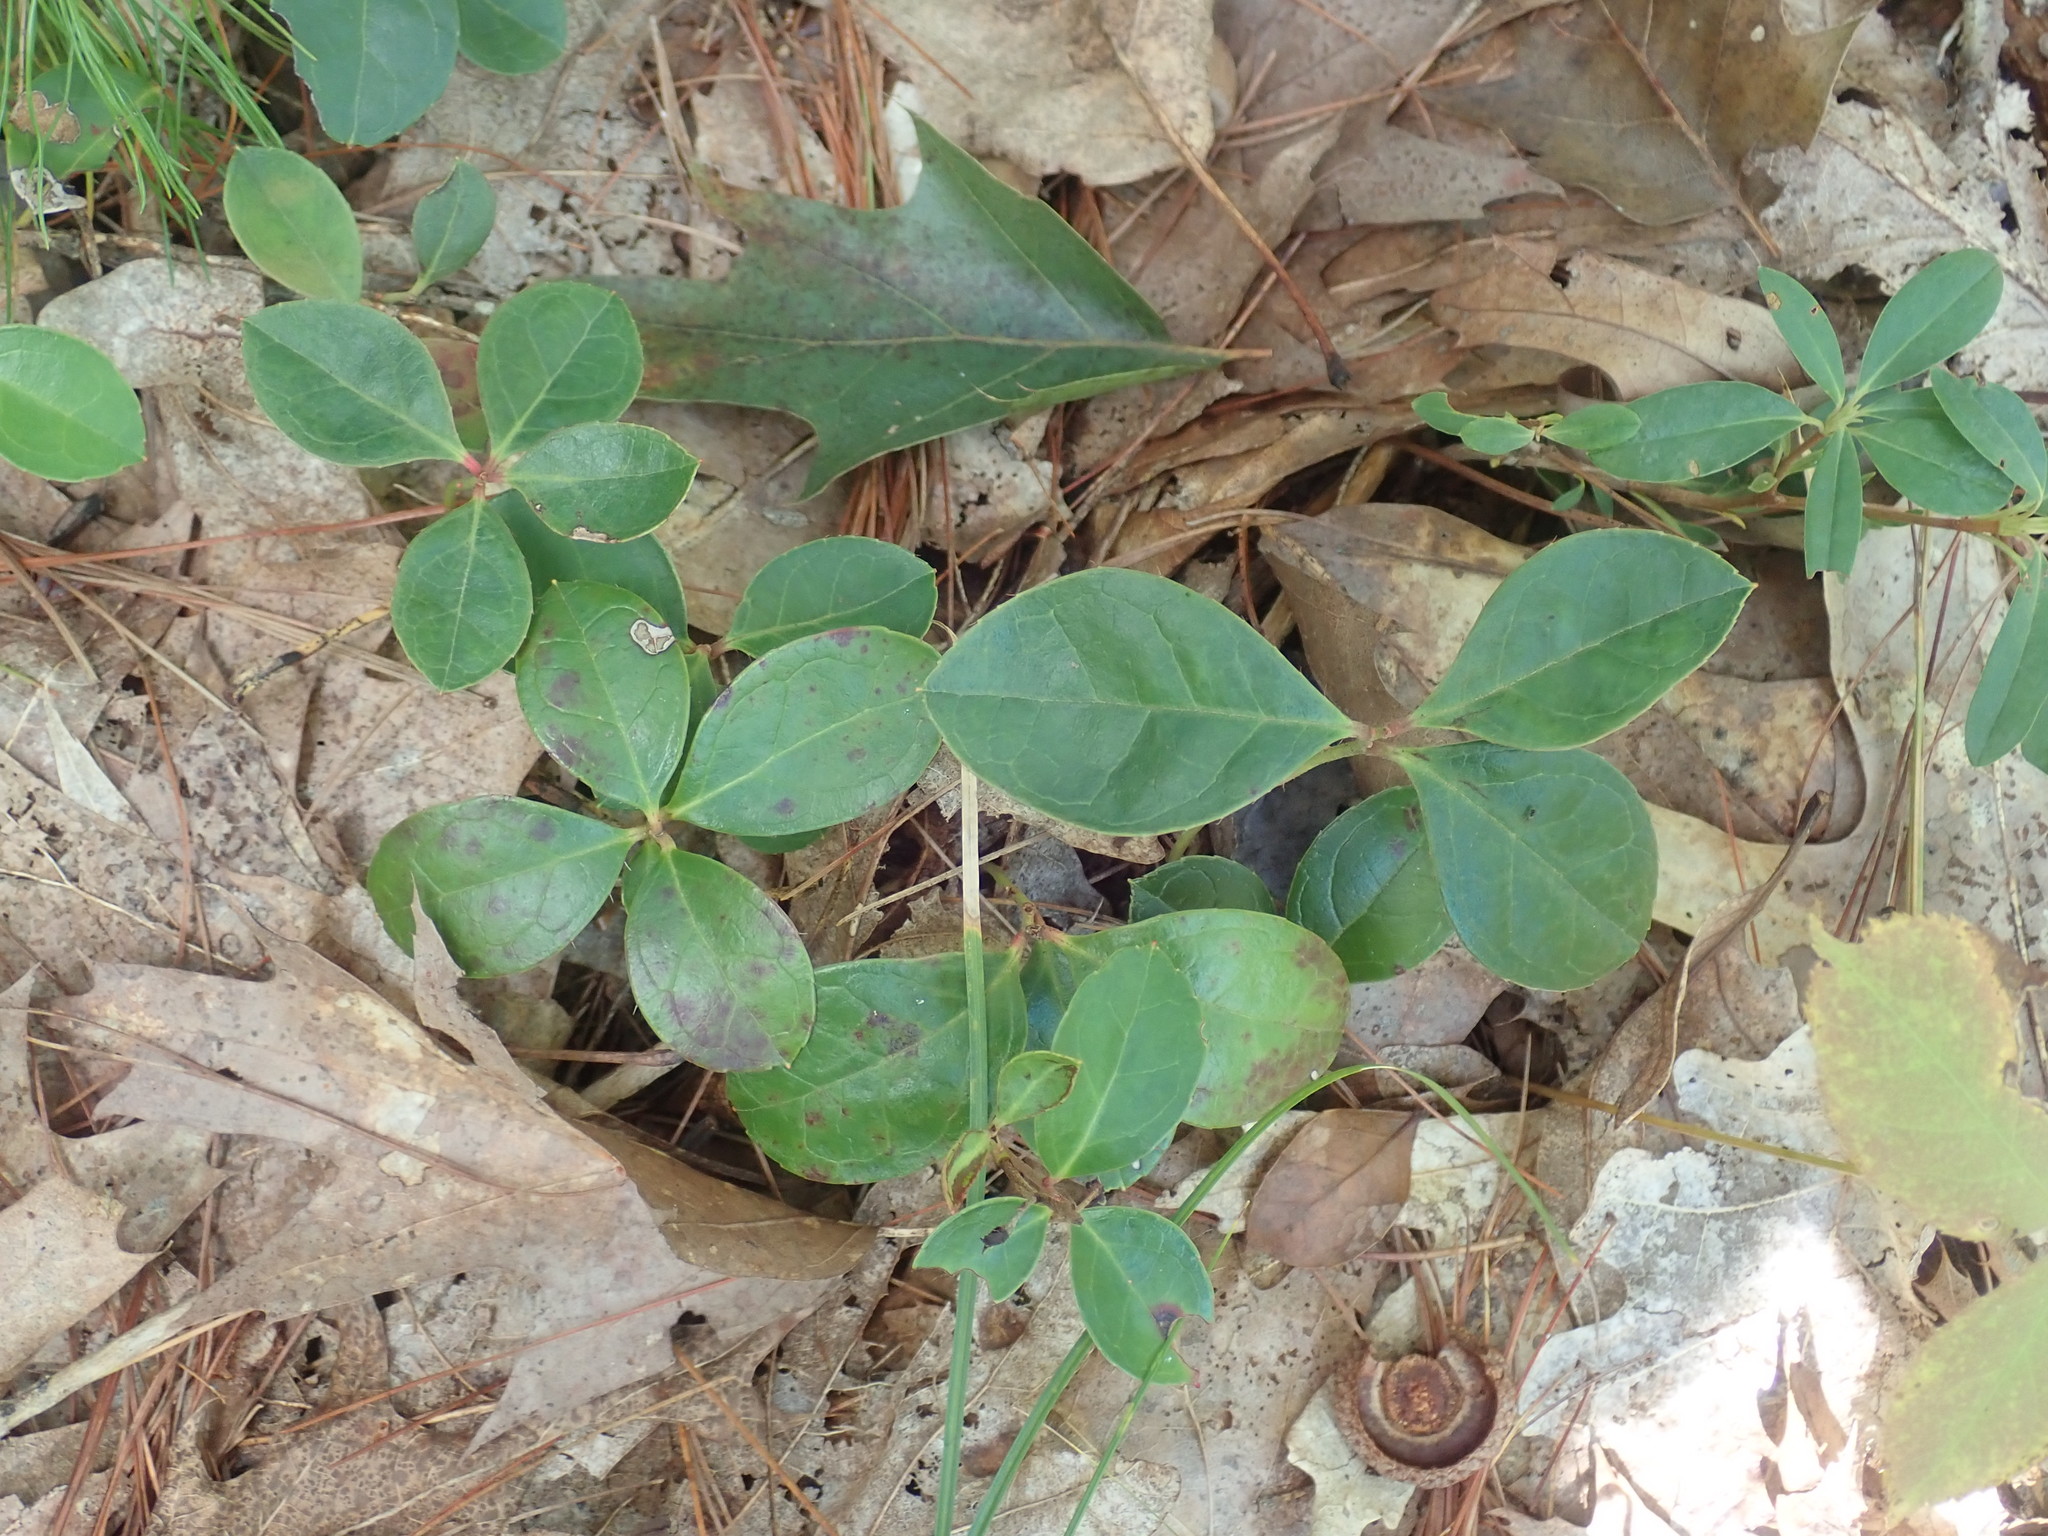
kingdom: Plantae
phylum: Tracheophyta
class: Magnoliopsida
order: Ericales
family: Ericaceae
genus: Gaultheria
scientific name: Gaultheria procumbens
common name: Checkerberry
